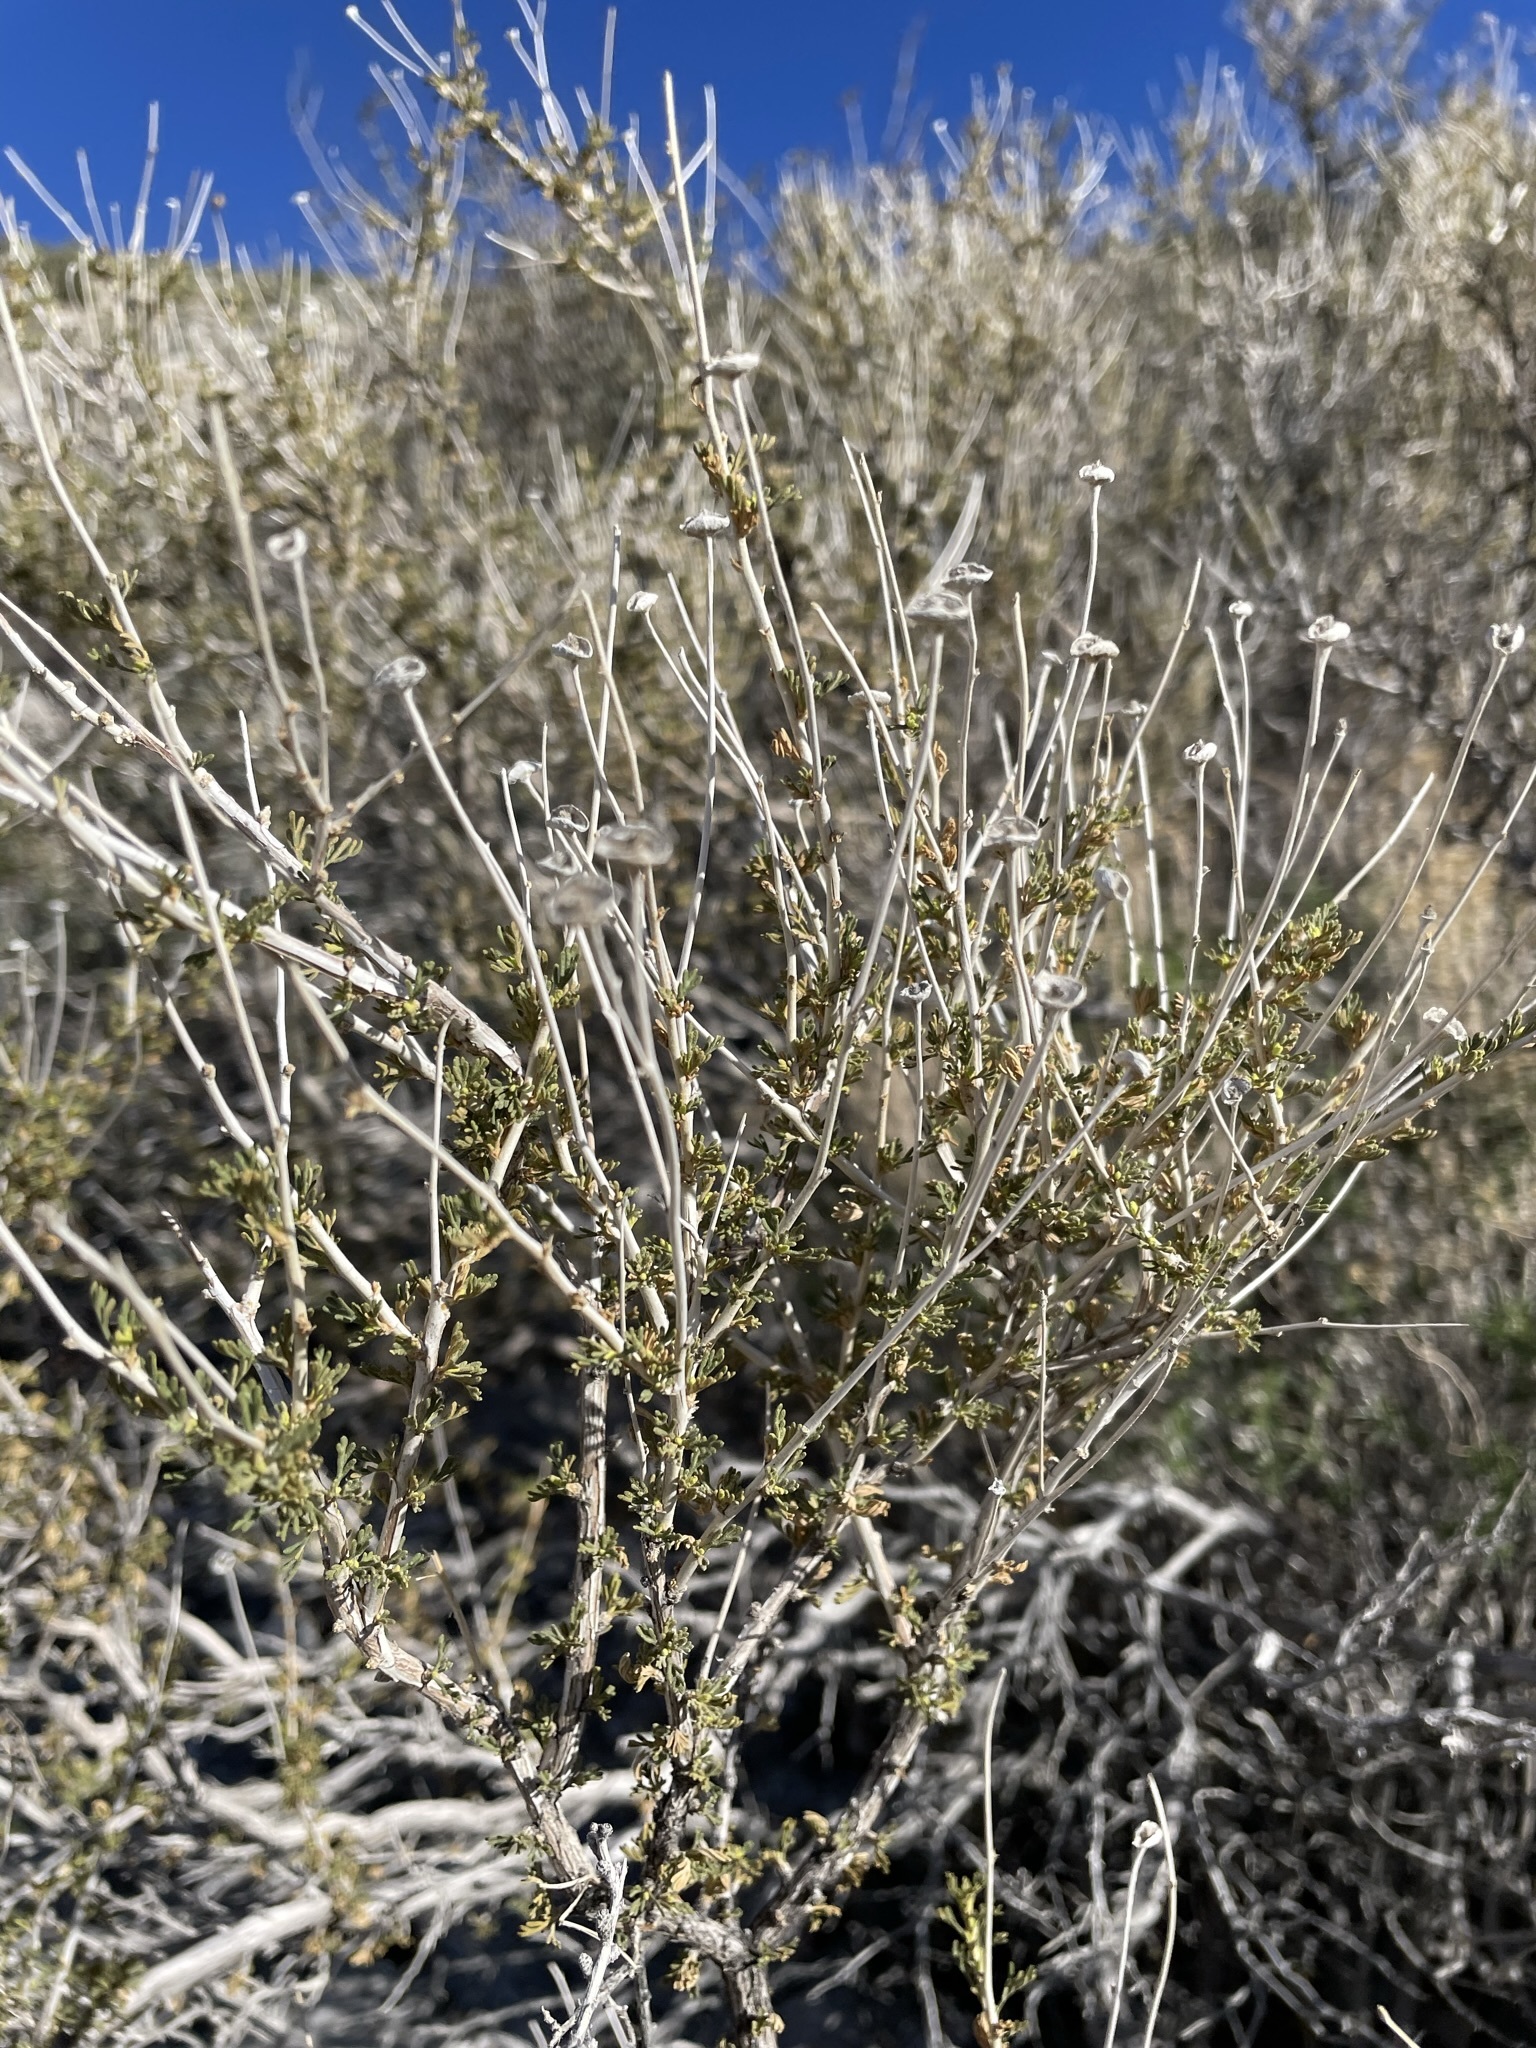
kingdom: Plantae
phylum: Tracheophyta
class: Magnoliopsida
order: Rosales
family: Rosaceae
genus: Fallugia
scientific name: Fallugia paradoxa
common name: Apache-plume
